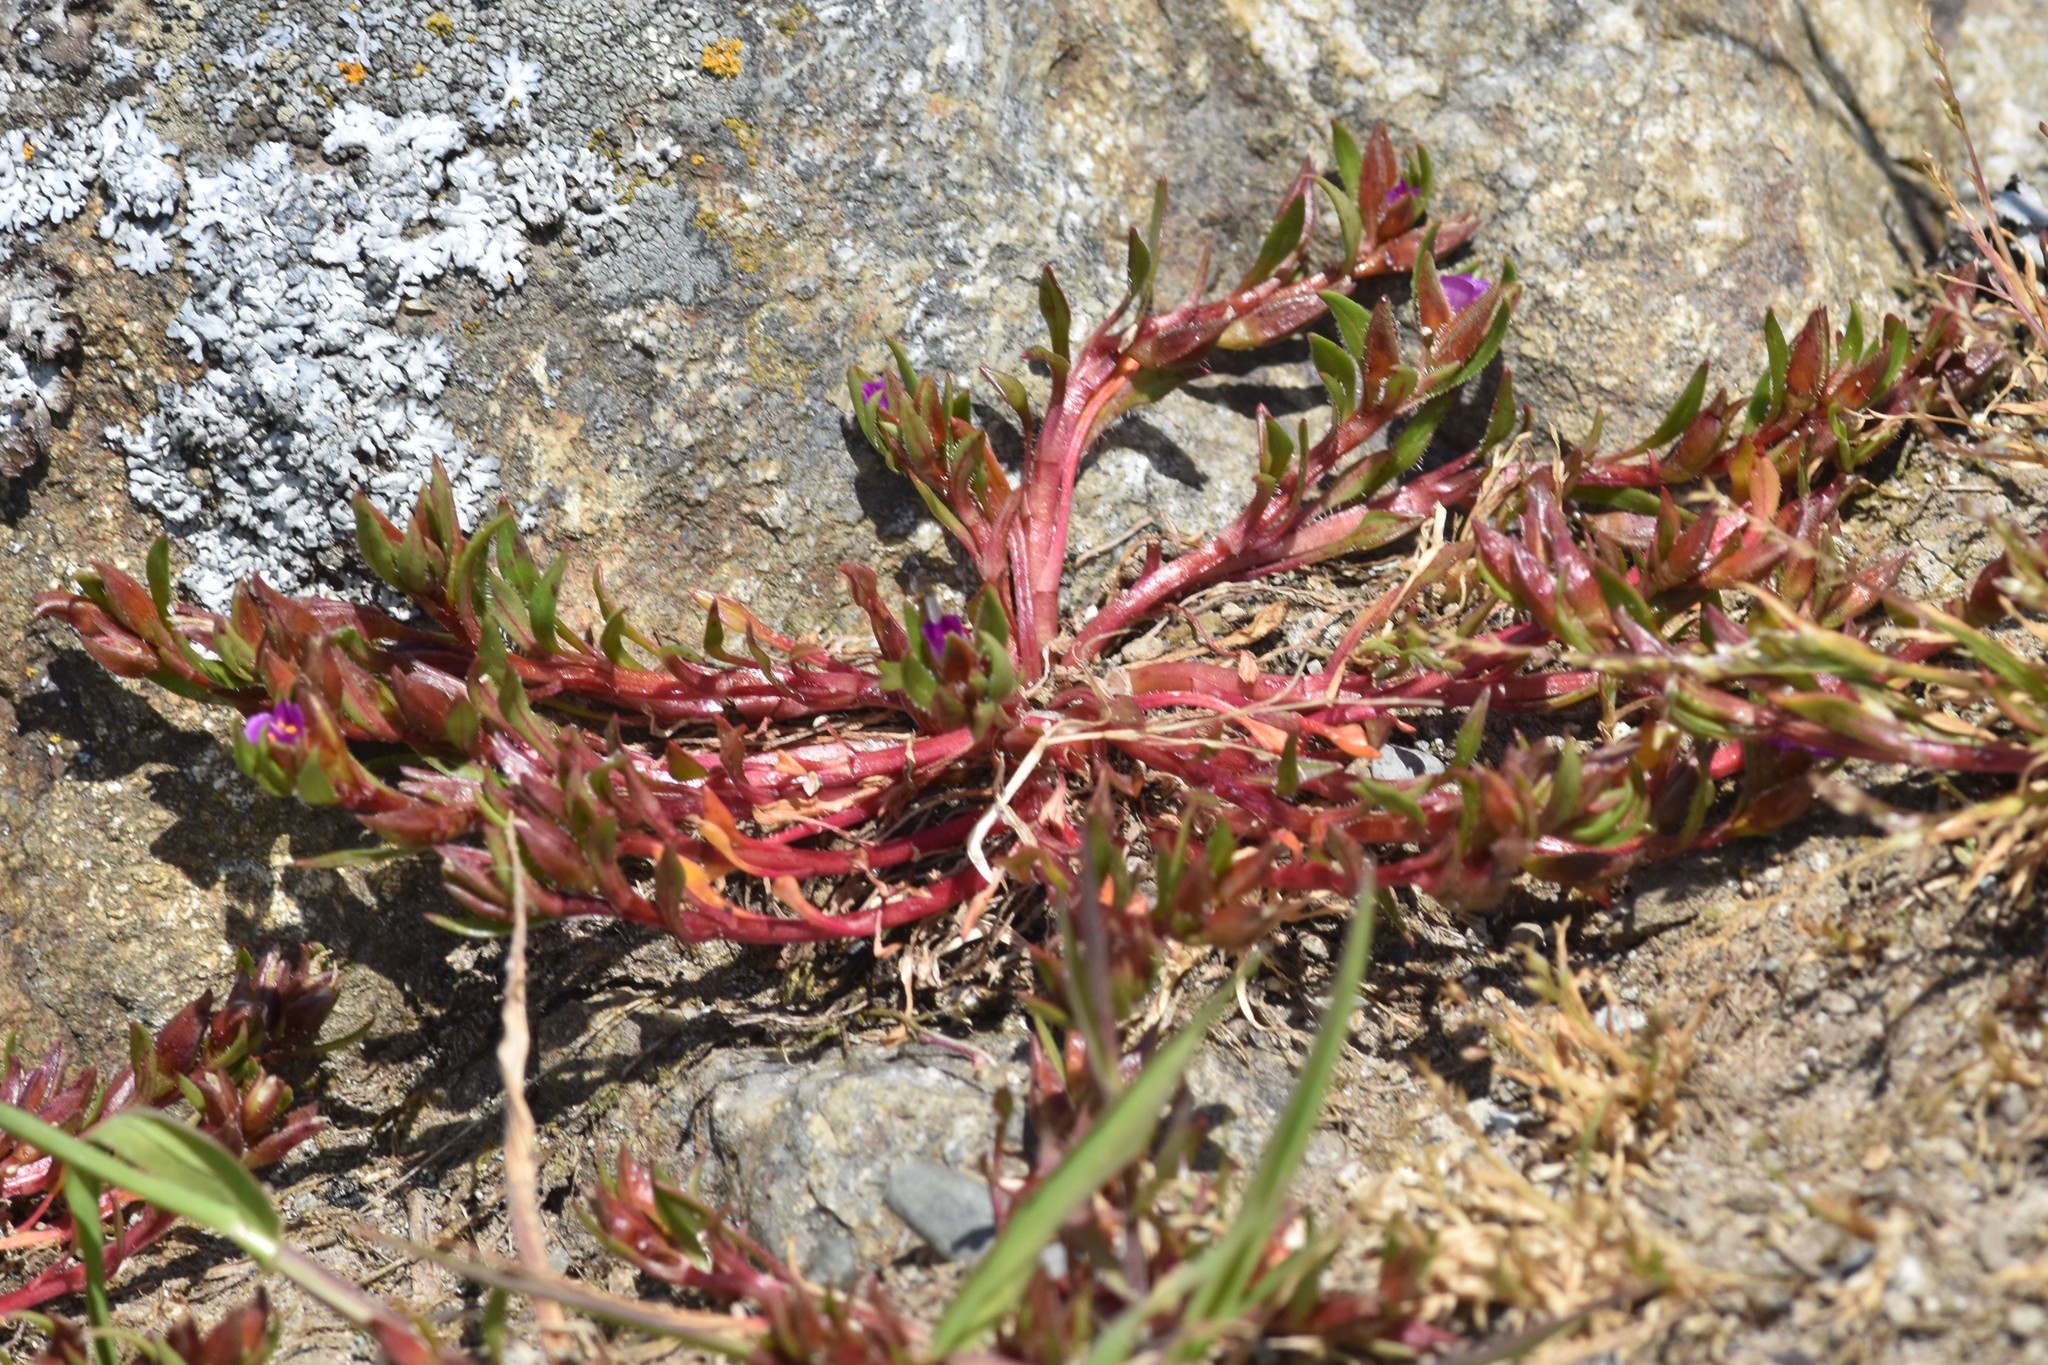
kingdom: Plantae
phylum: Tracheophyta
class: Magnoliopsida
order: Caryophyllales
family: Montiaceae
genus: Calandrinia
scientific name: Calandrinia menziesii
